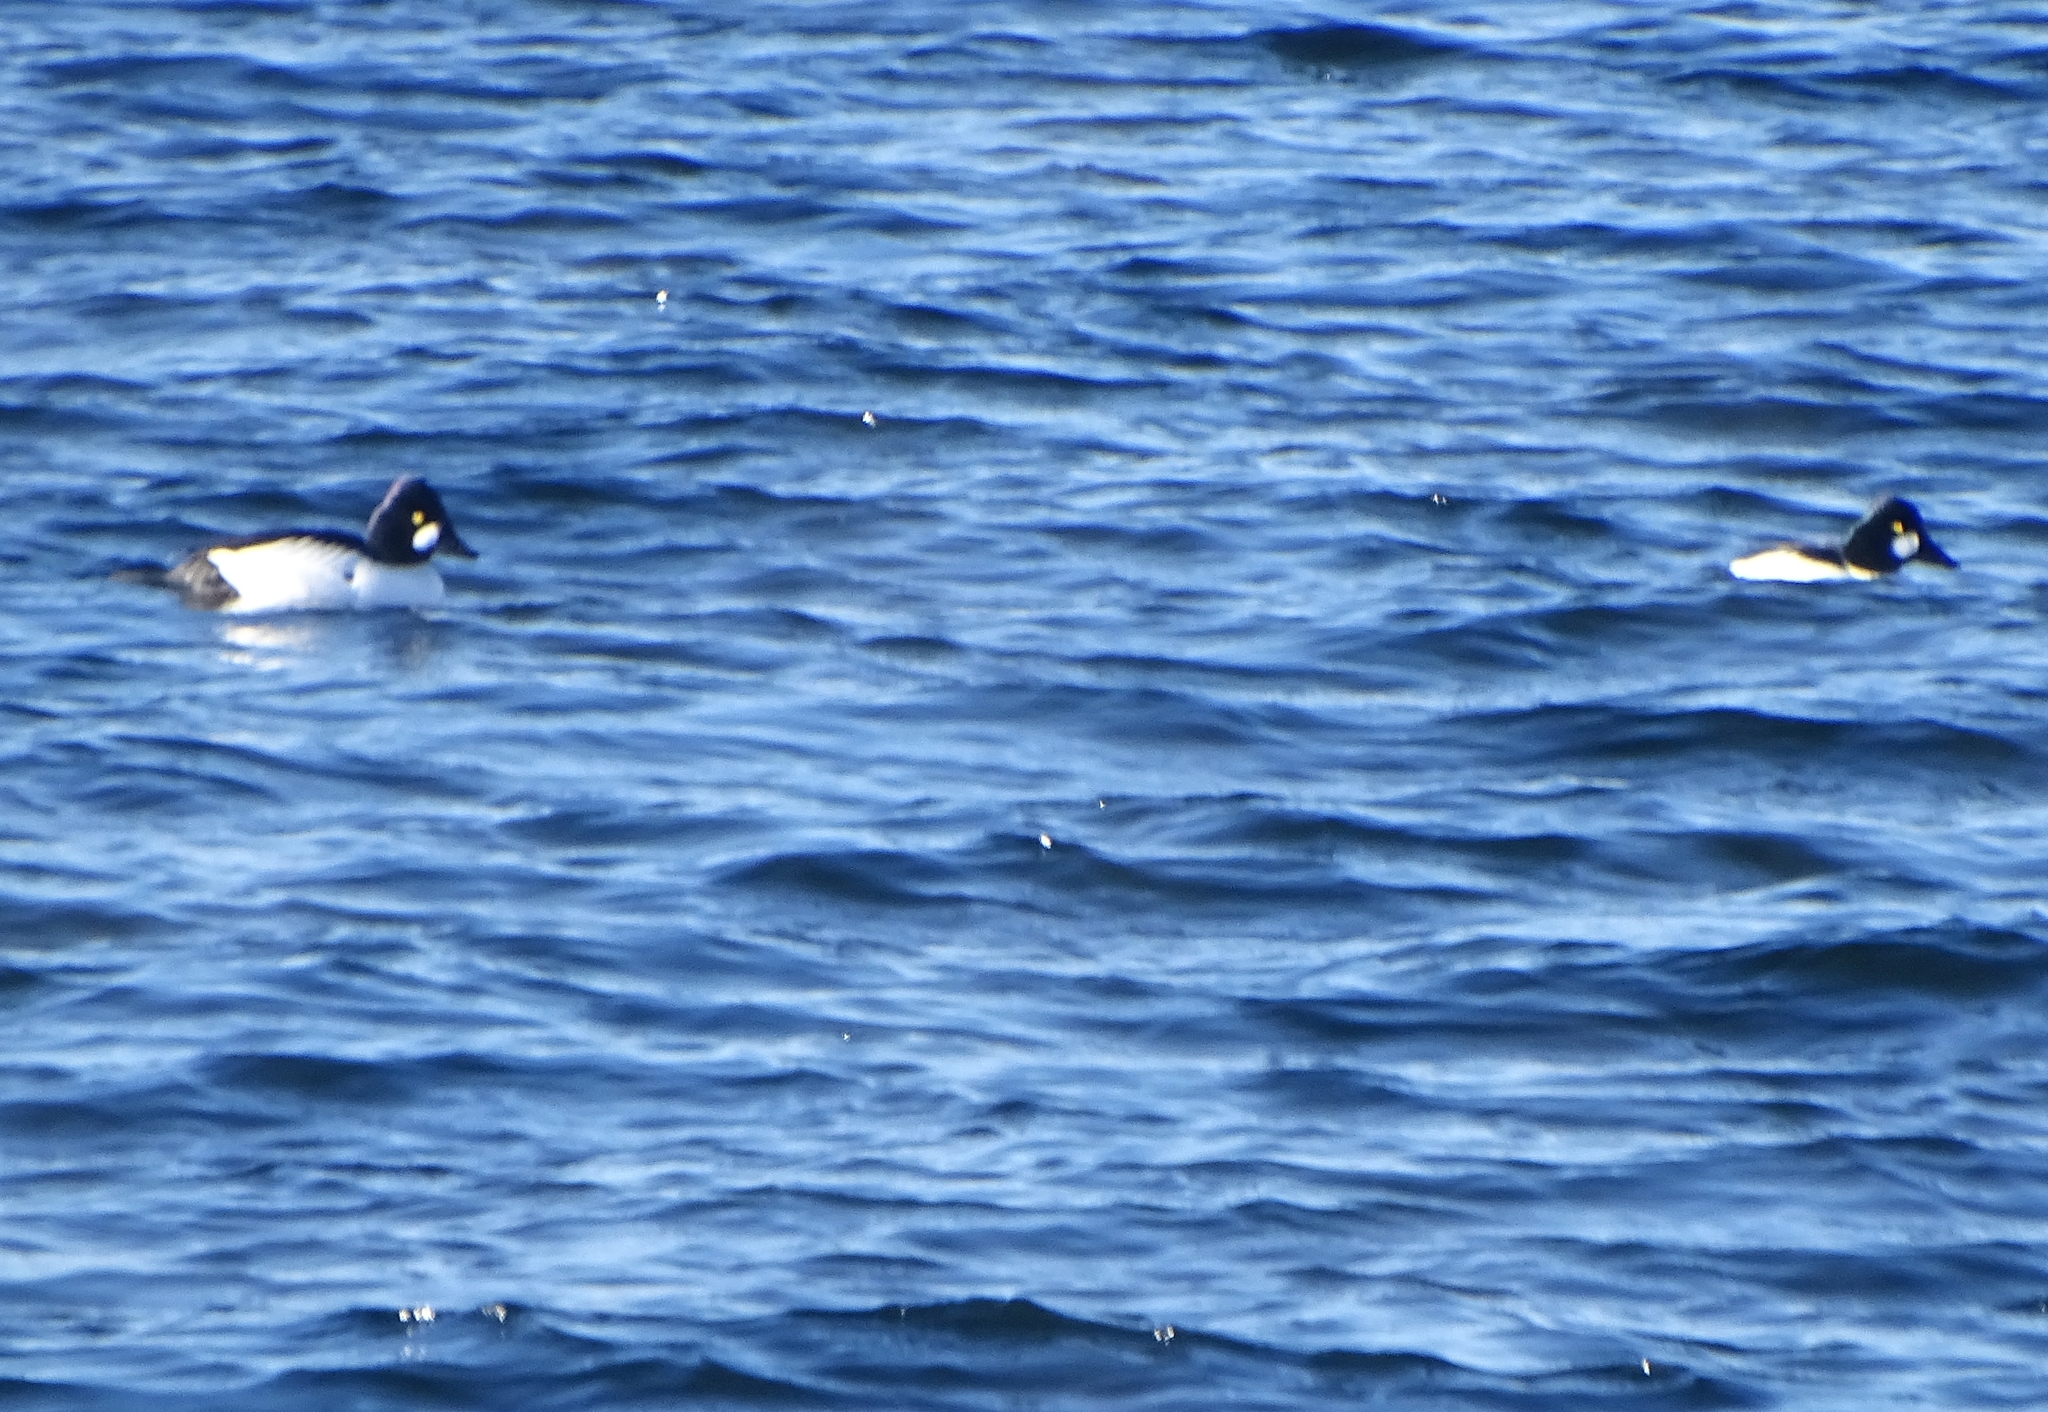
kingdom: Animalia
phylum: Chordata
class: Aves
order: Anseriformes
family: Anatidae
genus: Bucephala
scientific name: Bucephala clangula
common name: Common goldeneye
